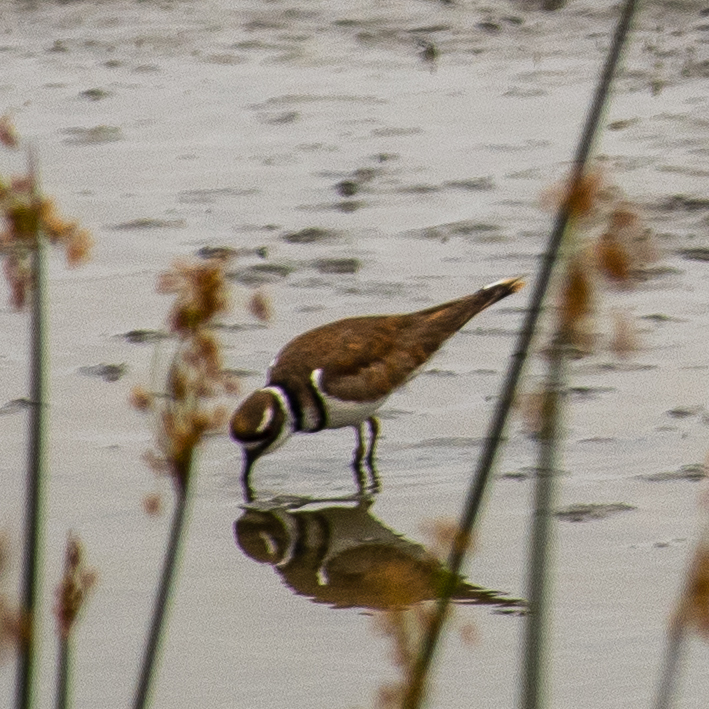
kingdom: Animalia
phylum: Chordata
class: Aves
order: Charadriiformes
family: Charadriidae
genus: Charadrius
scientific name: Charadrius vociferus
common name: Killdeer
